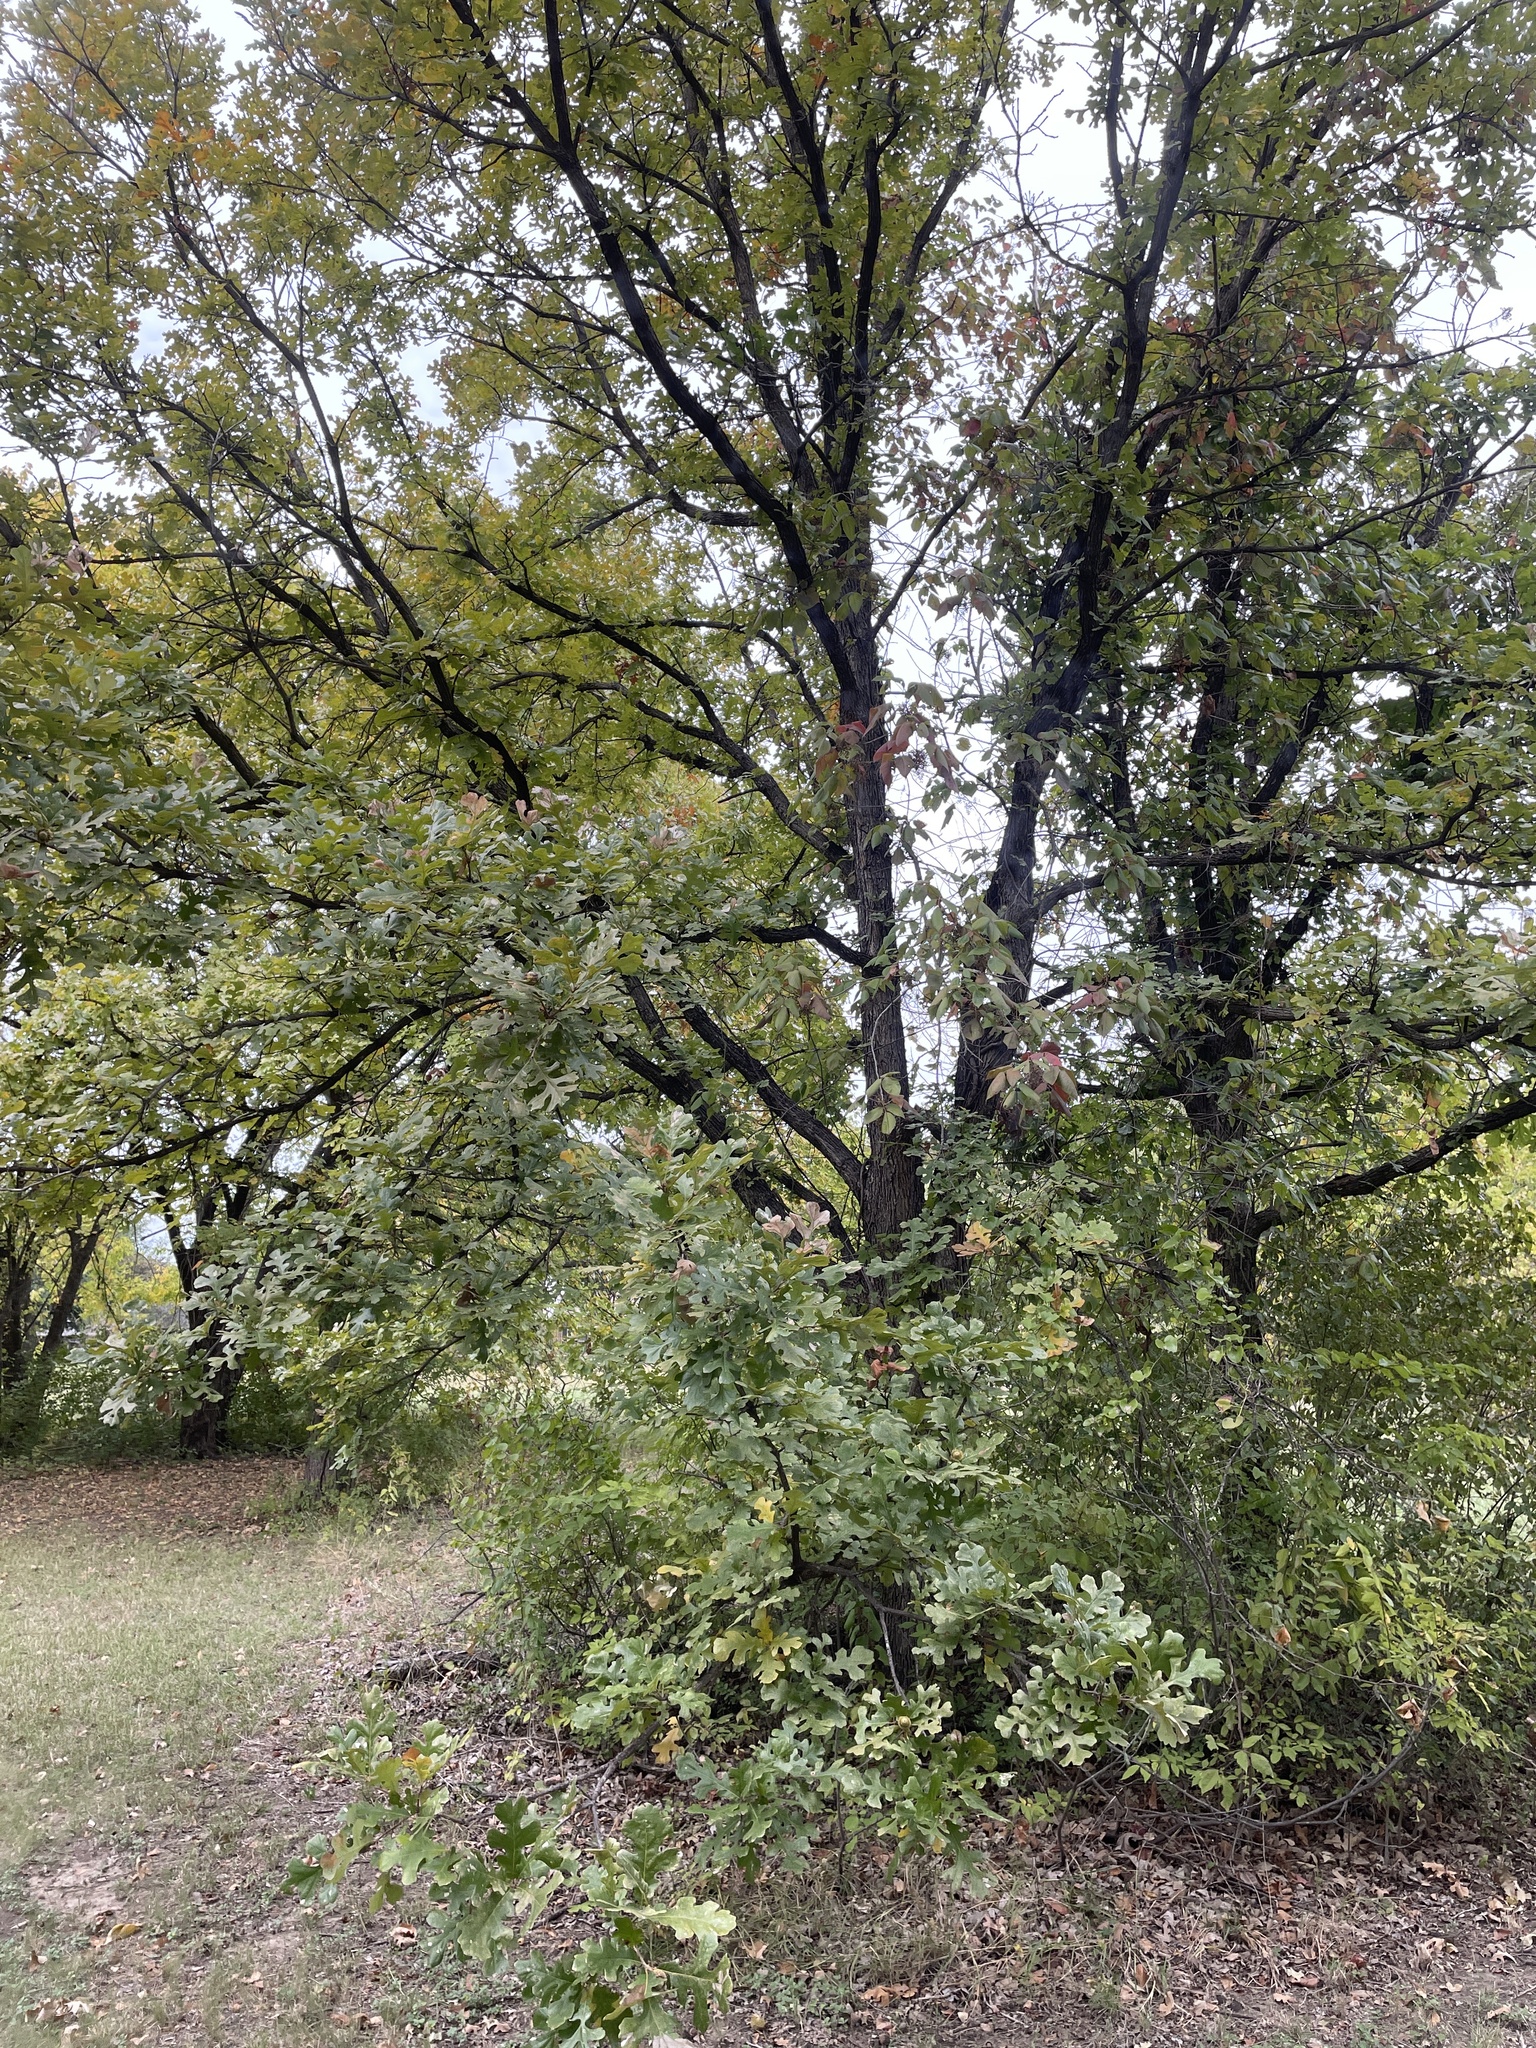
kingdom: Plantae
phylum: Tracheophyta
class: Magnoliopsida
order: Fagales
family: Fagaceae
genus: Quercus
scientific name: Quercus macrocarpa
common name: Bur oak
